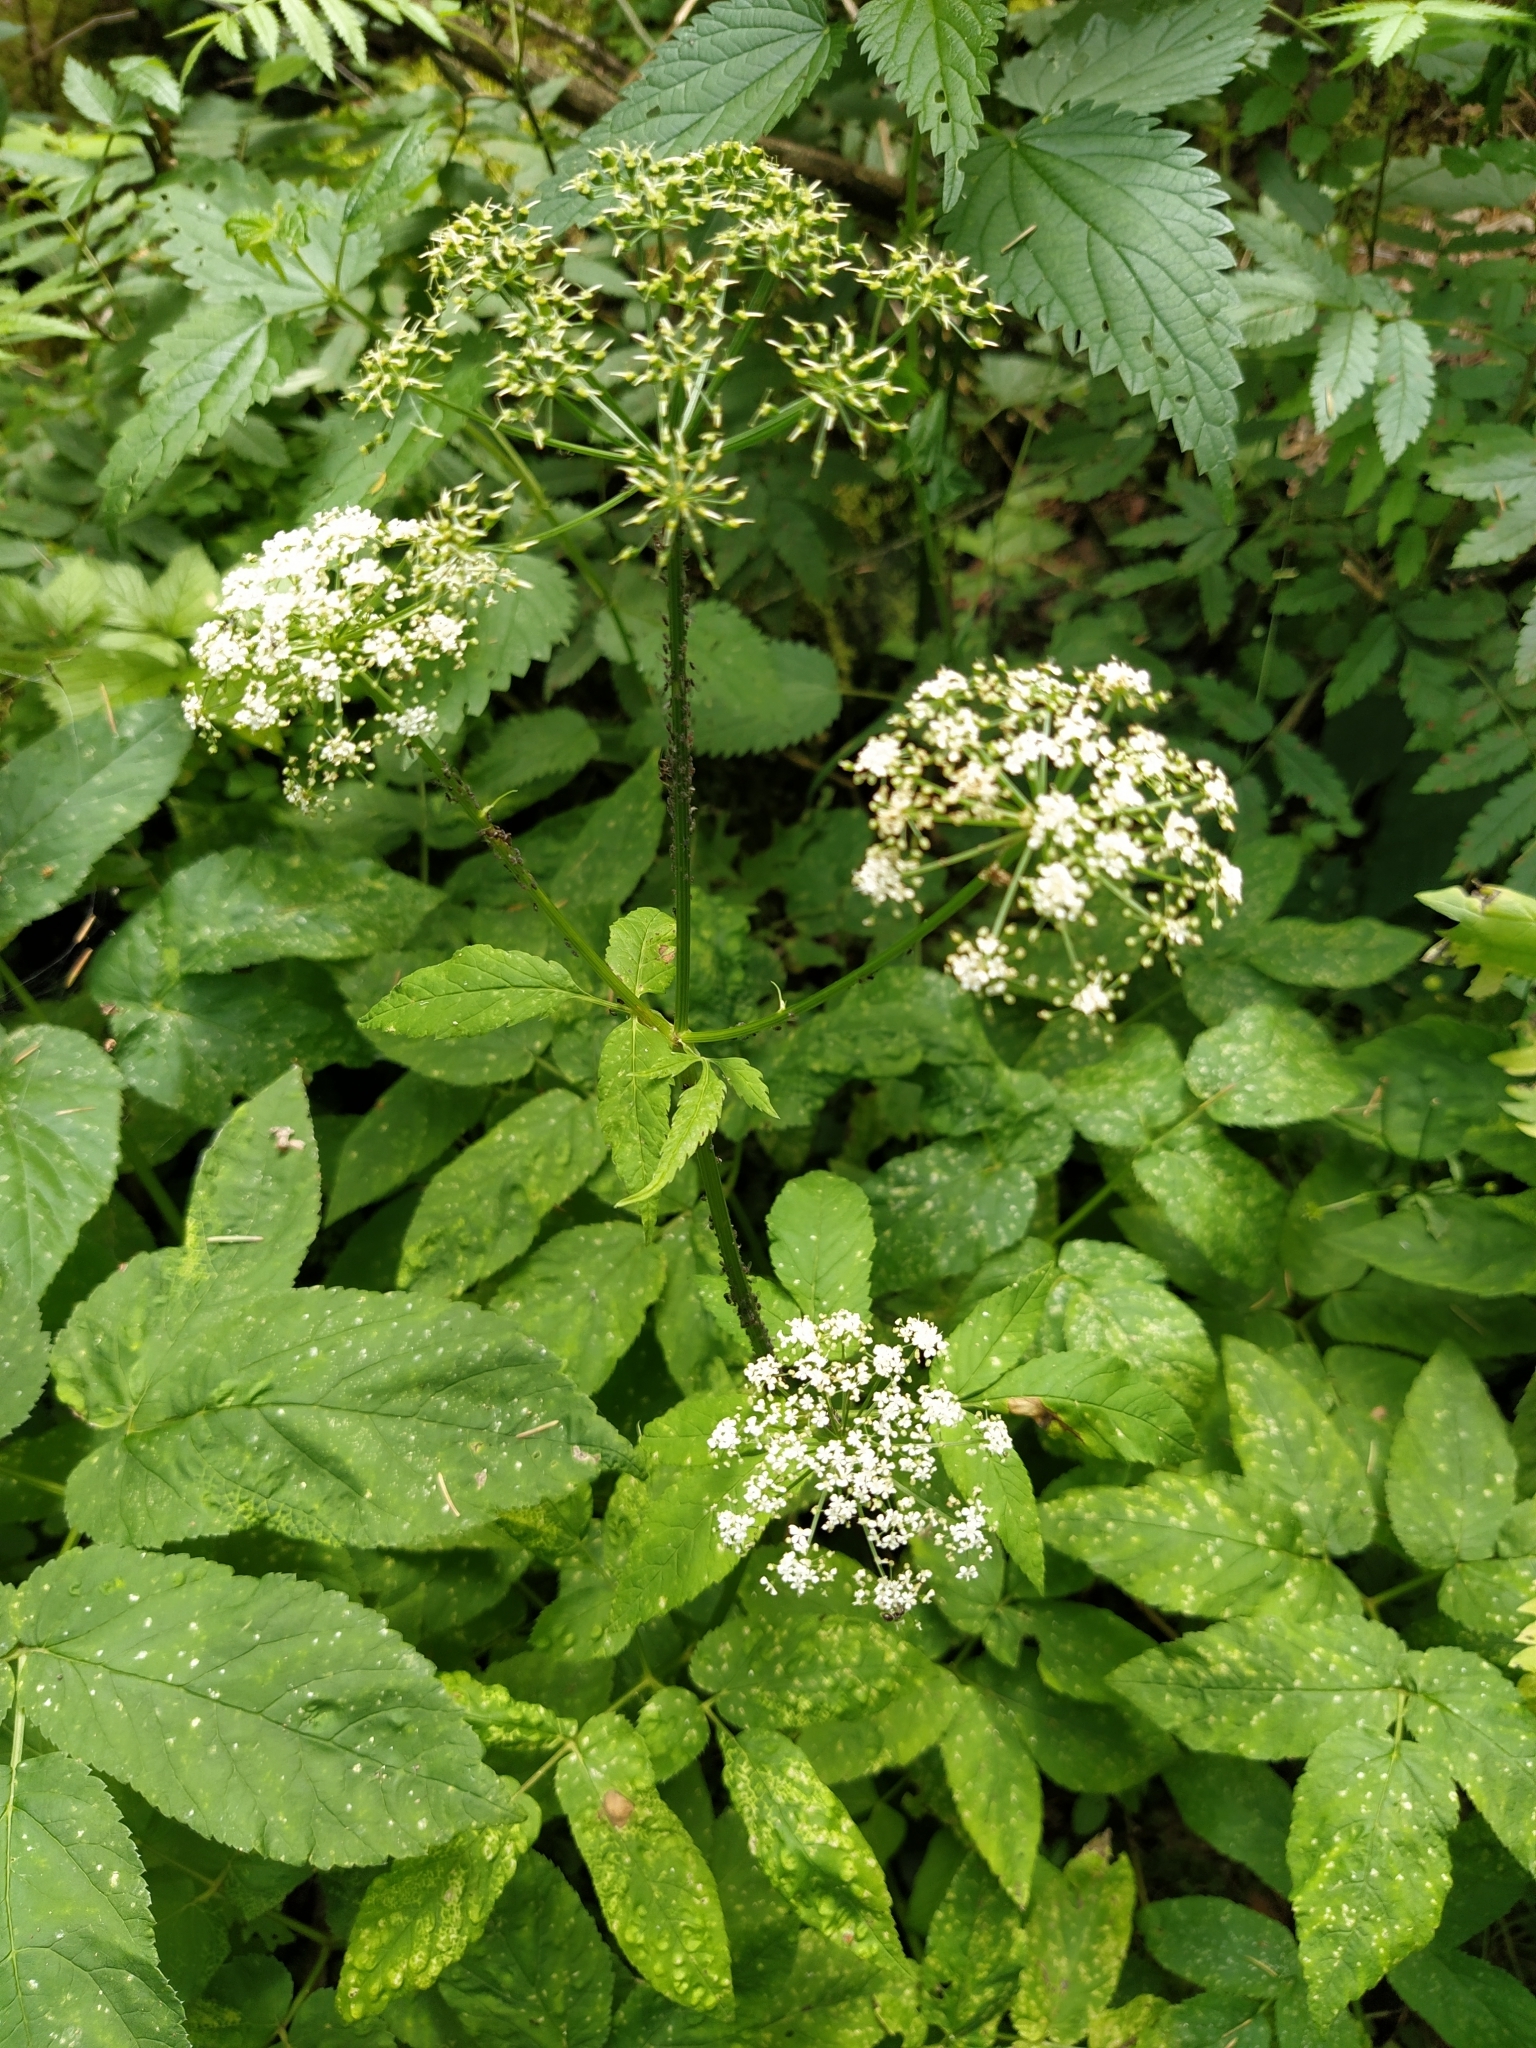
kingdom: Plantae
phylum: Tracheophyta
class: Magnoliopsida
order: Apiales
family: Apiaceae
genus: Aegopodium
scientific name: Aegopodium podagraria
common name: Ground-elder
